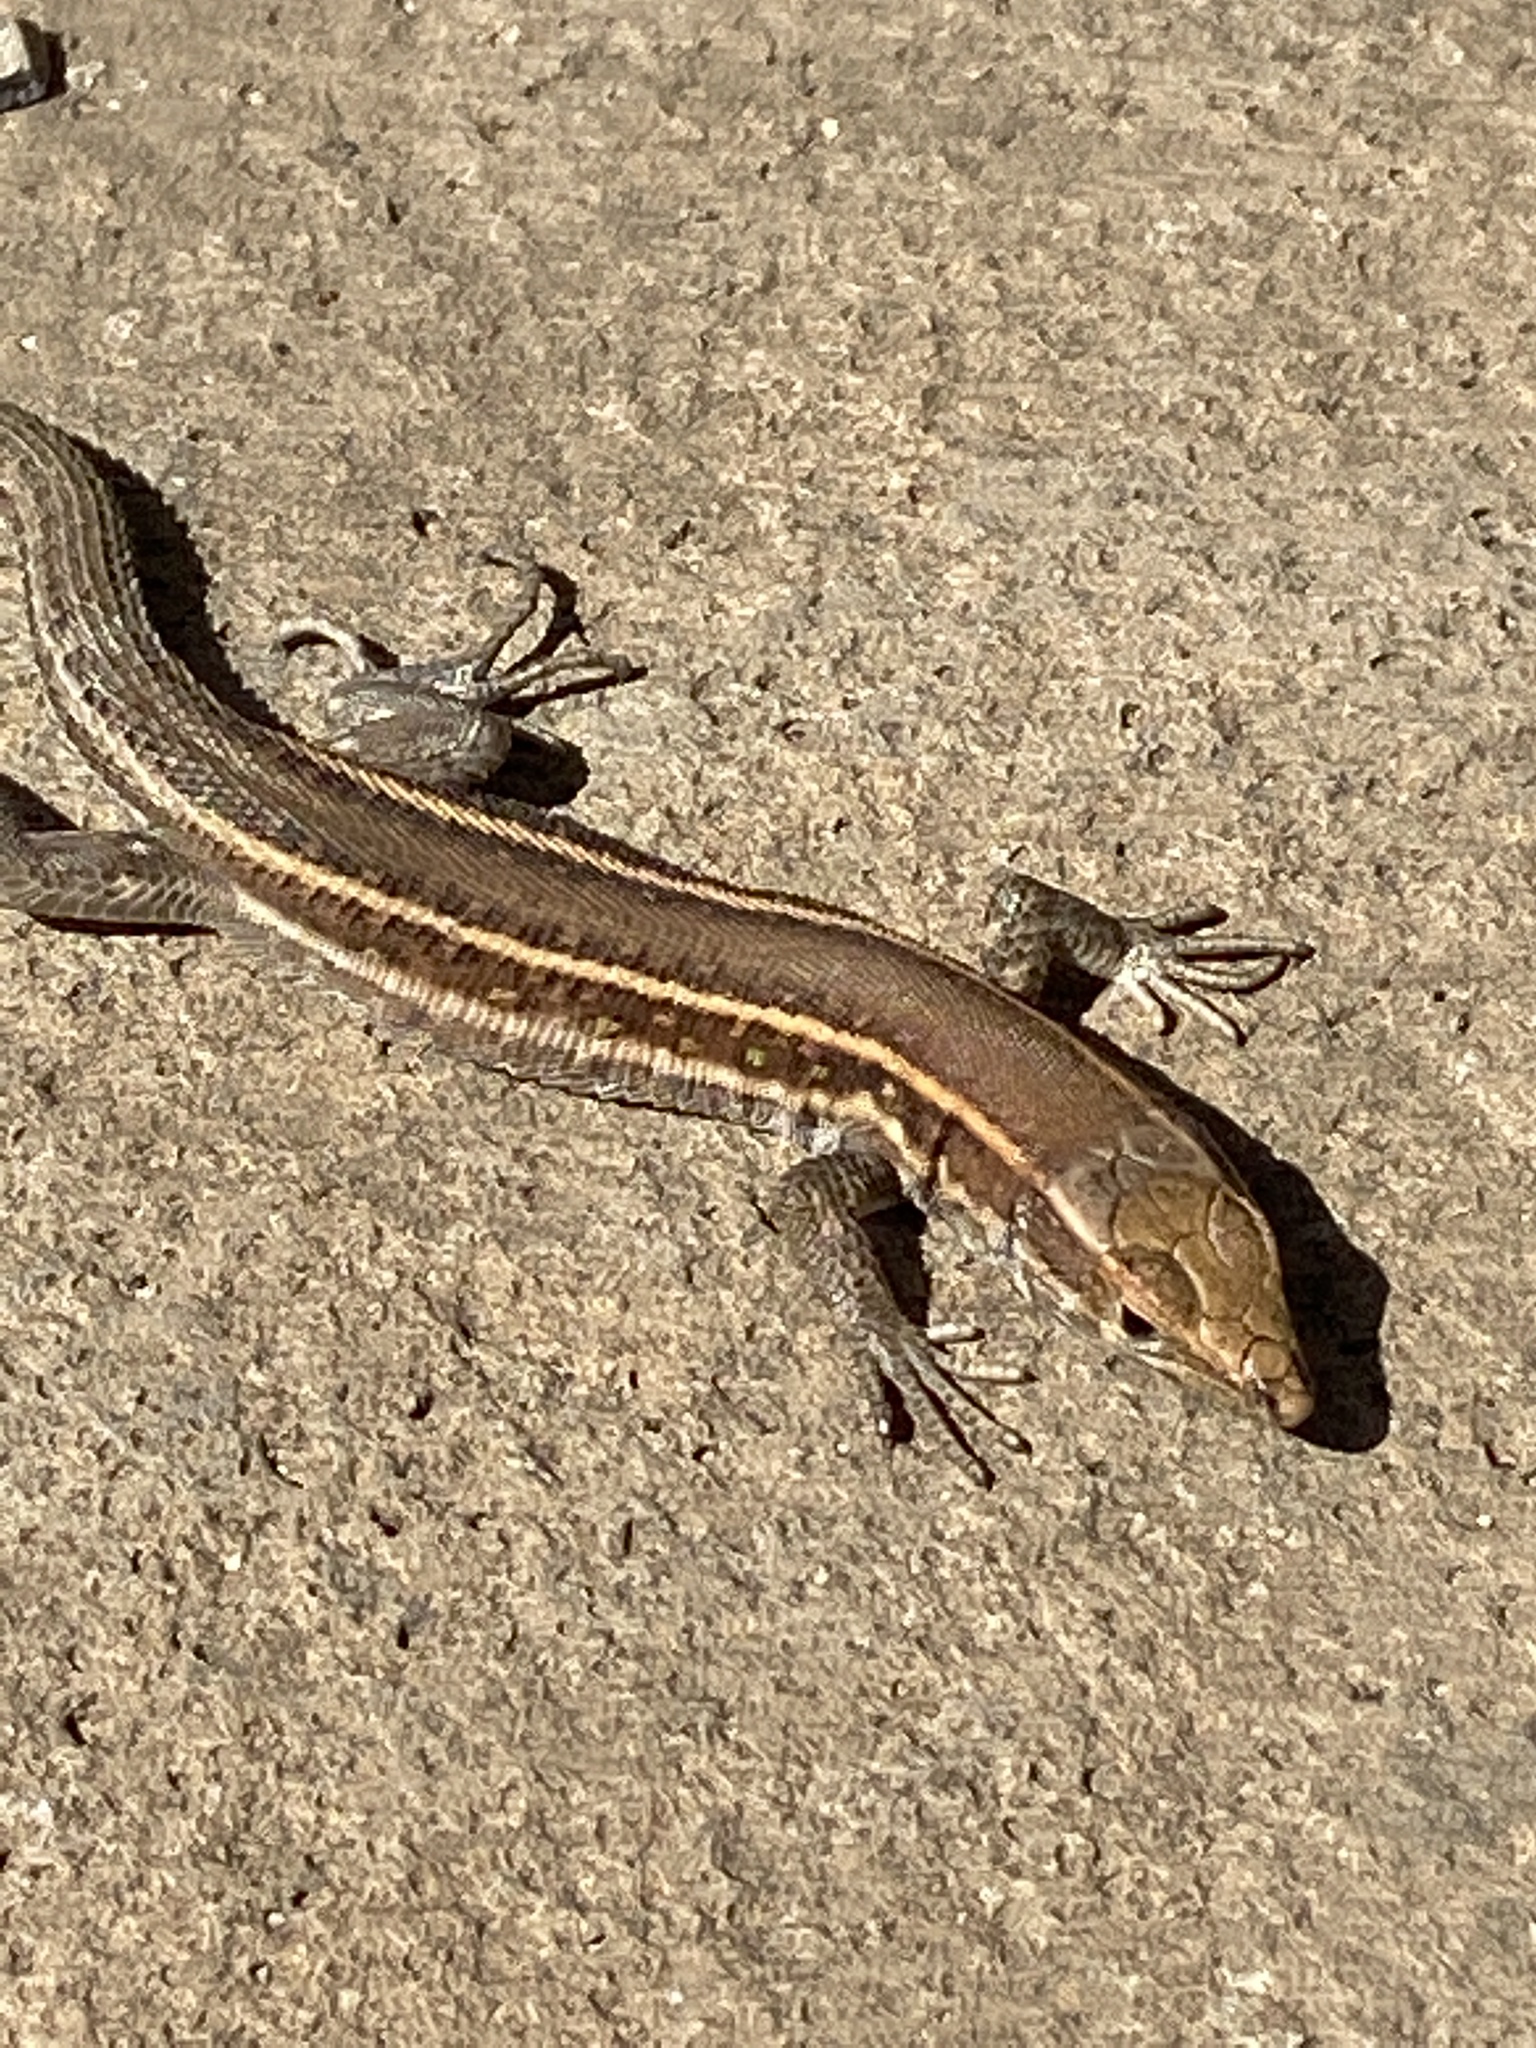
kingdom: Animalia
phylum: Chordata
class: Squamata
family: Lacertidae
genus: Gallotia
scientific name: Gallotia atlantica
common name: Atlantic lizard
